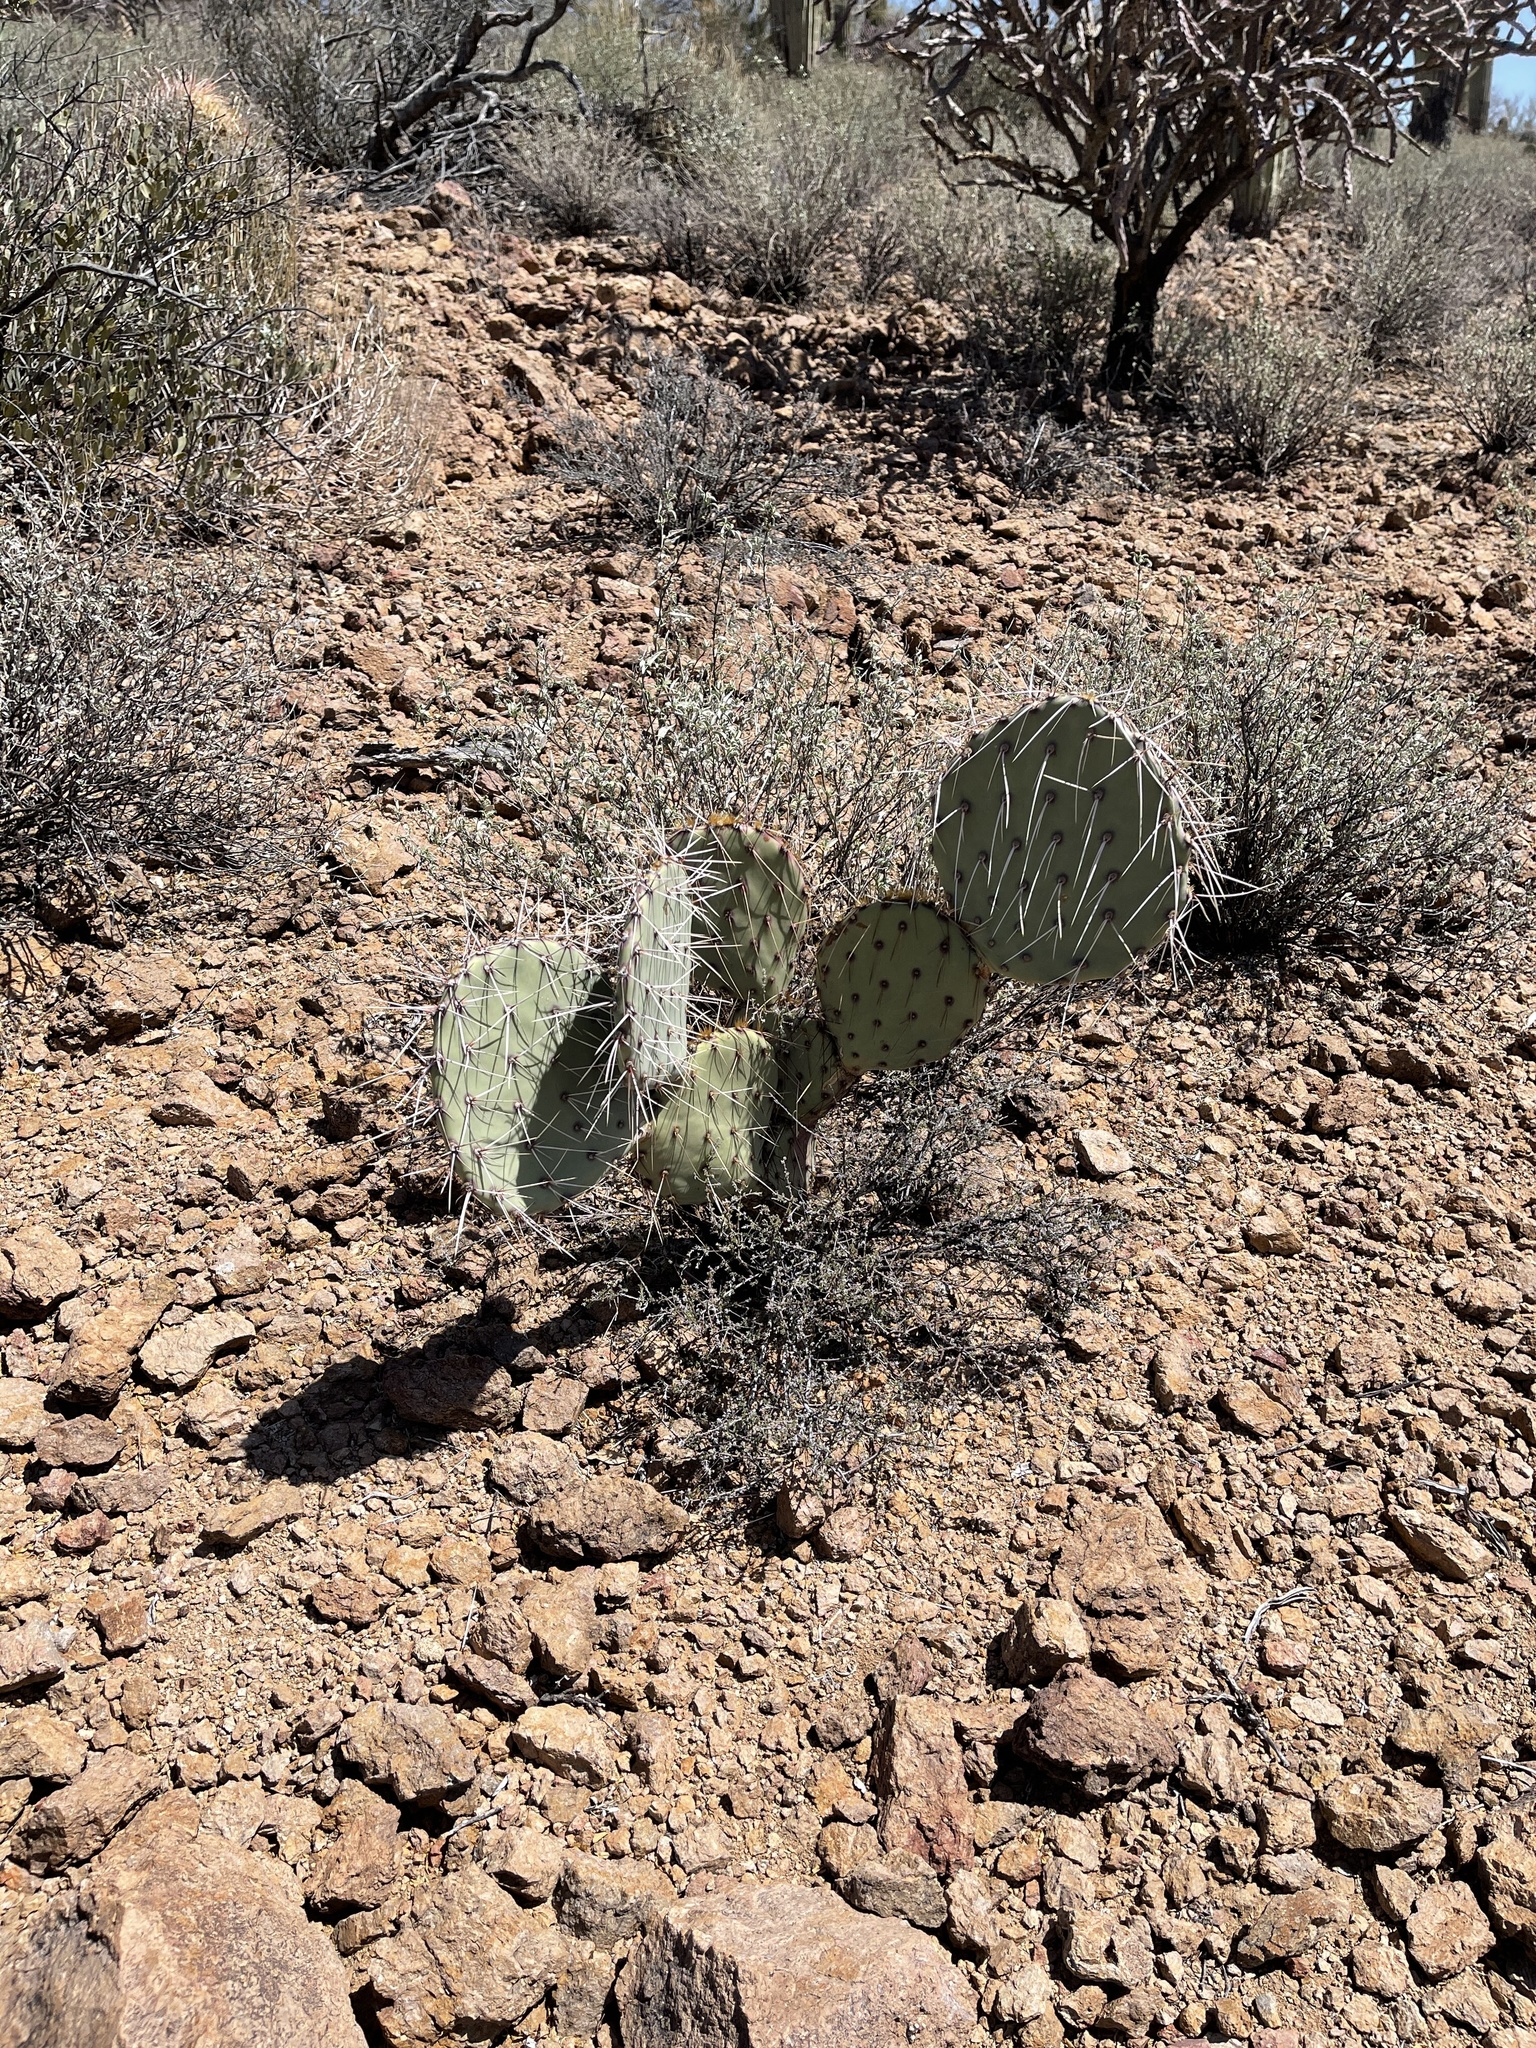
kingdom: Plantae
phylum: Tracheophyta
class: Magnoliopsida
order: Caryophyllales
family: Cactaceae
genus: Opuntia
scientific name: Opuntia phaeacantha
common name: New mexico prickly-pear
